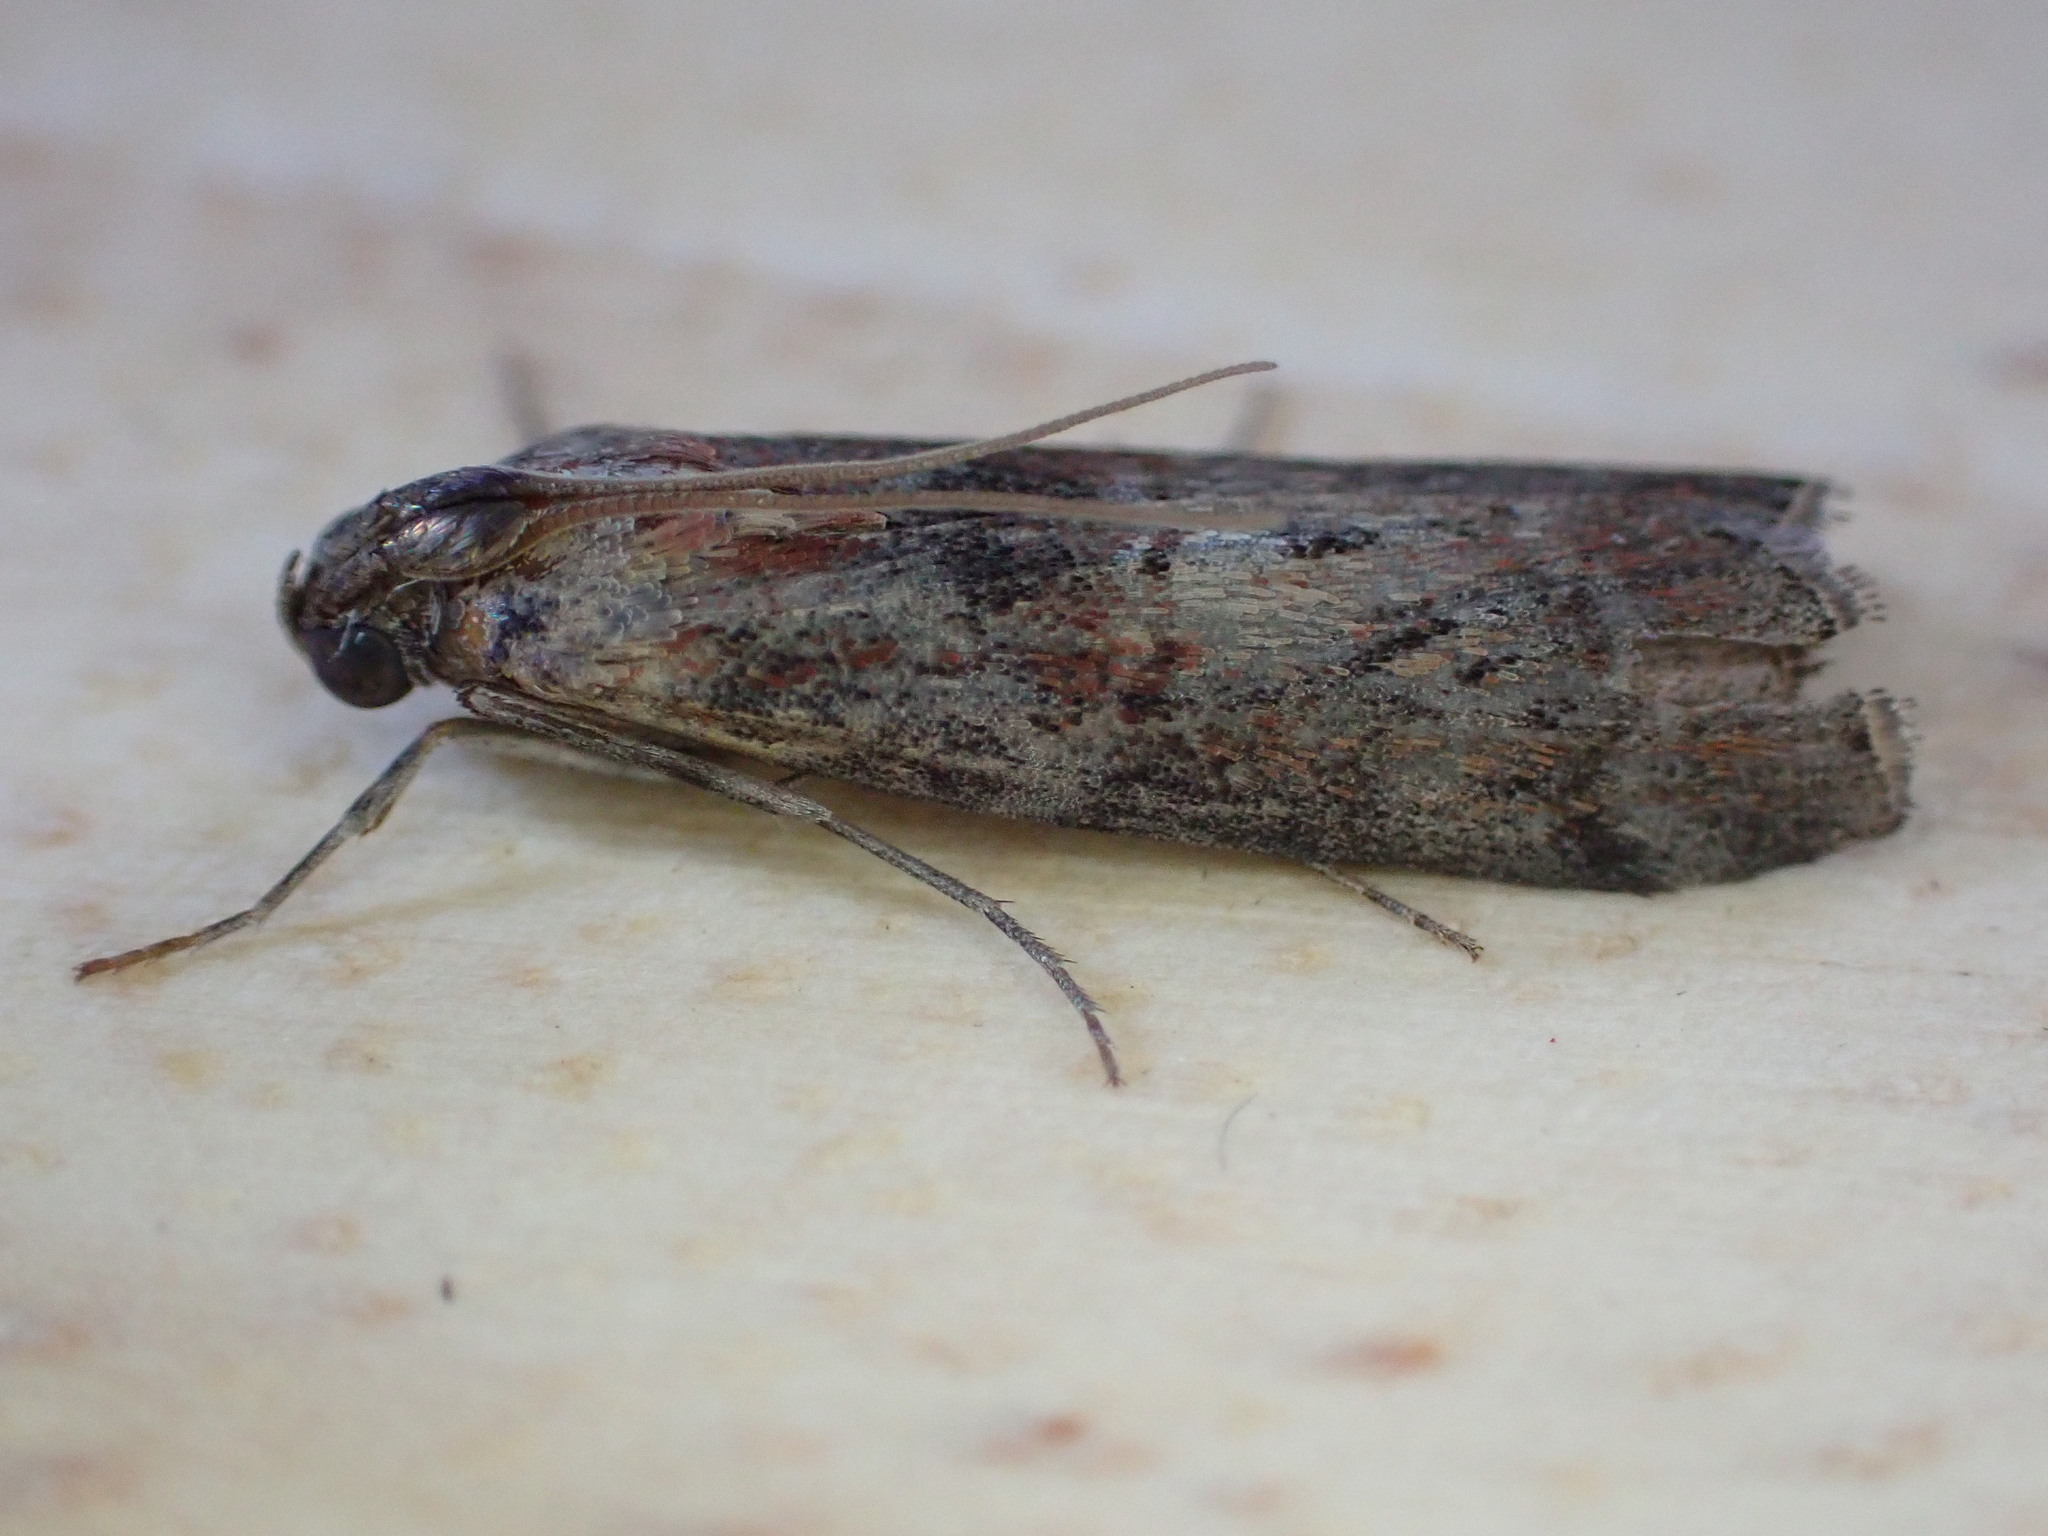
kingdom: Animalia
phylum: Arthropoda
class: Insecta
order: Lepidoptera
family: Pyralidae
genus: Phycita
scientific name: Phycita roborella
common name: Dotted oak knot-horn
